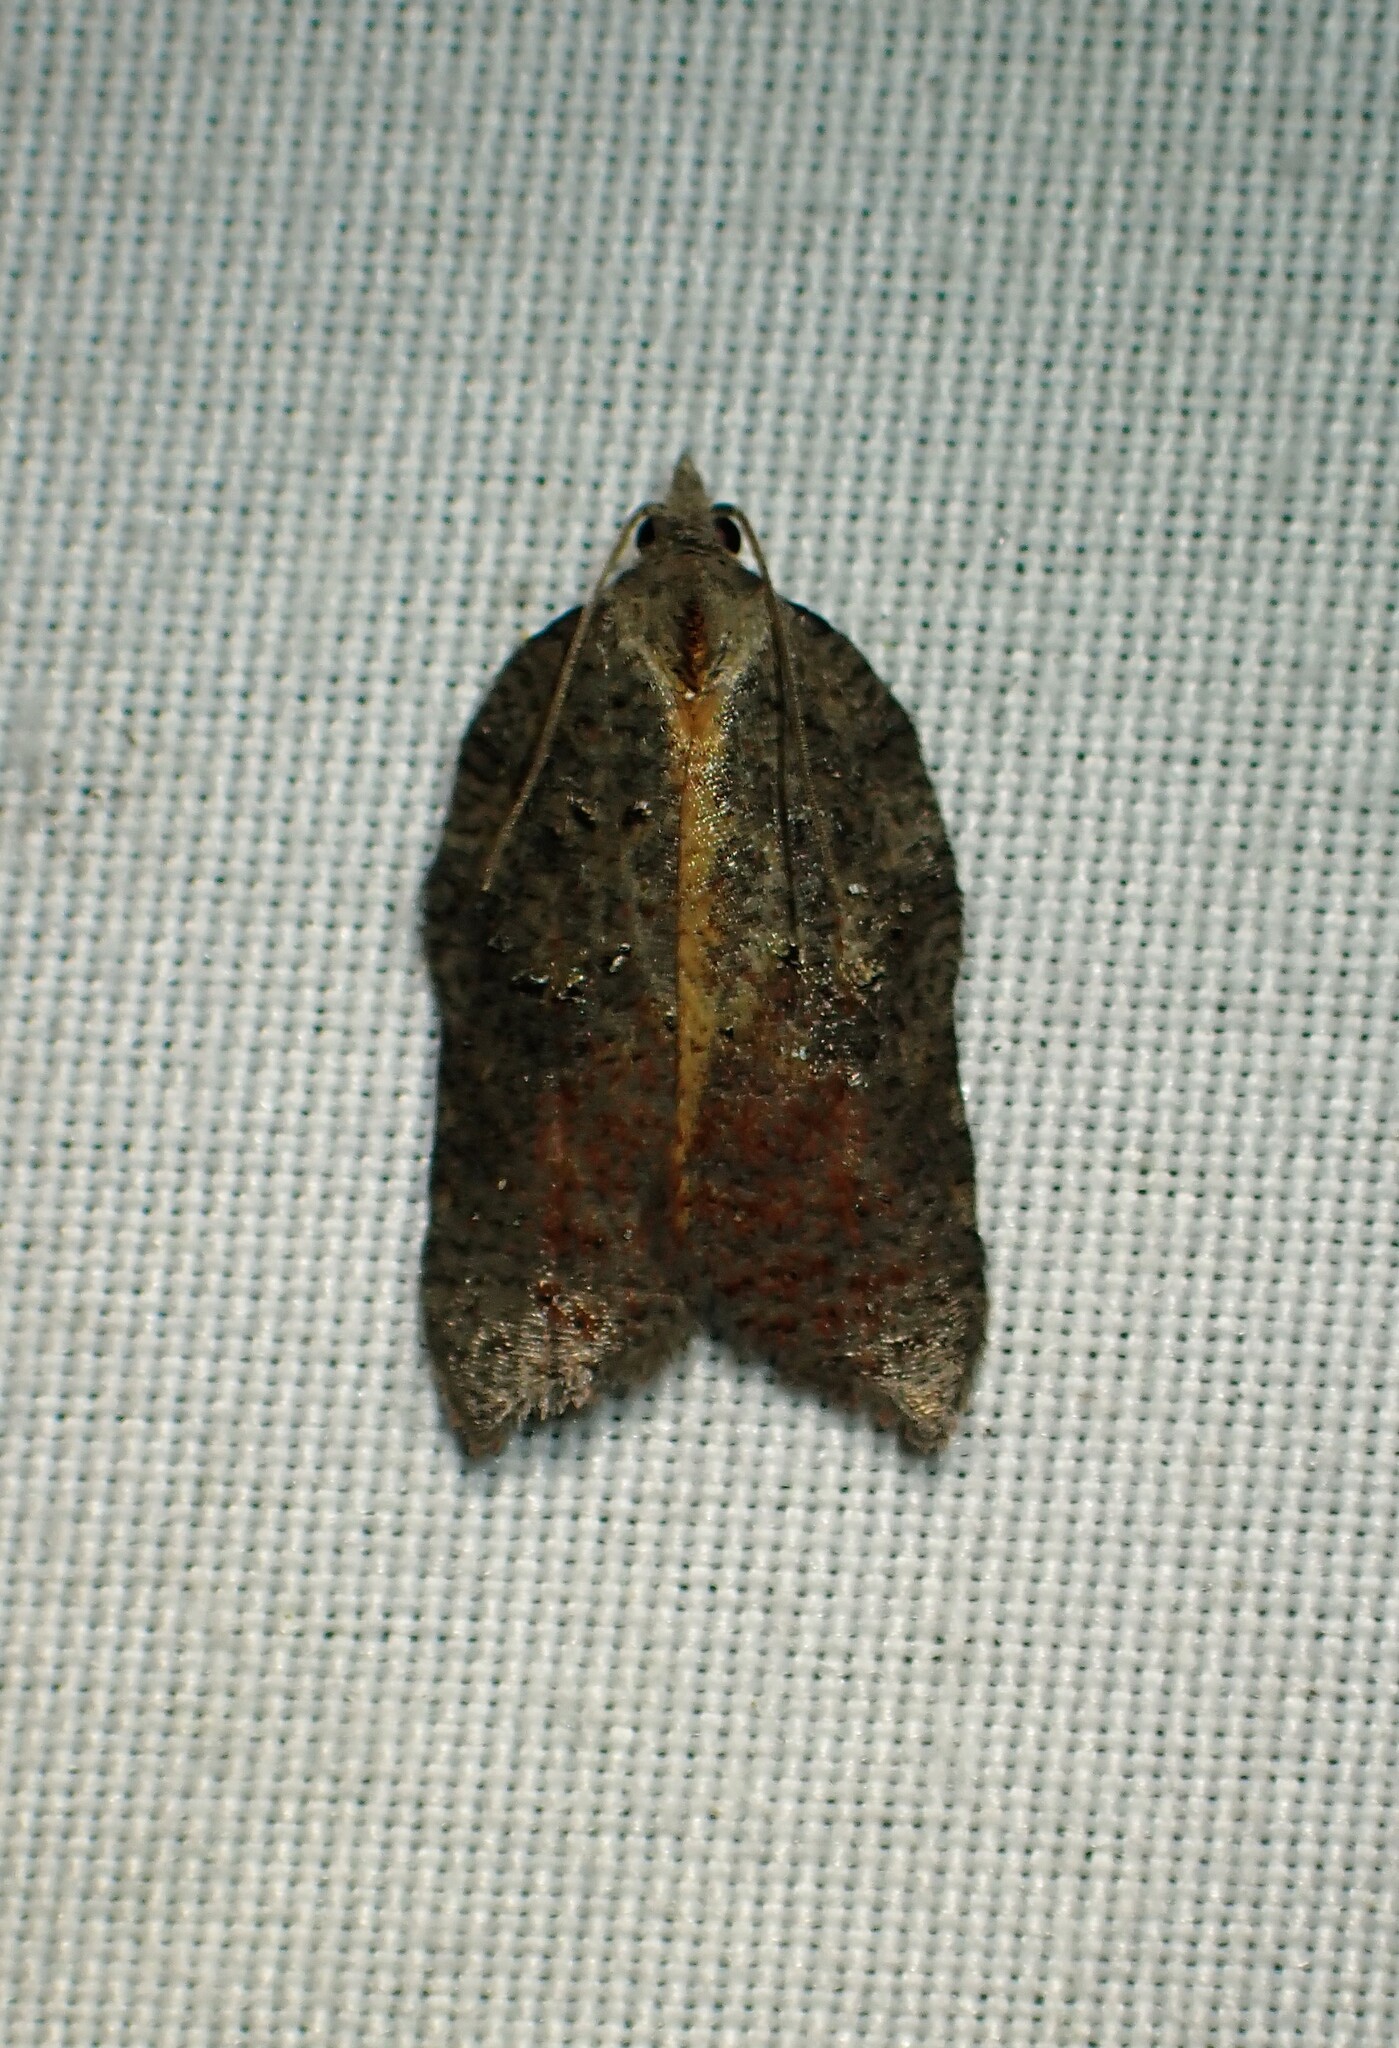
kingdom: Animalia
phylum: Arthropoda
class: Insecta
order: Lepidoptera
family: Tortricidae
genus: Acleris
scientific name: Acleris effractana
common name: Hook-winged tortrix moth
